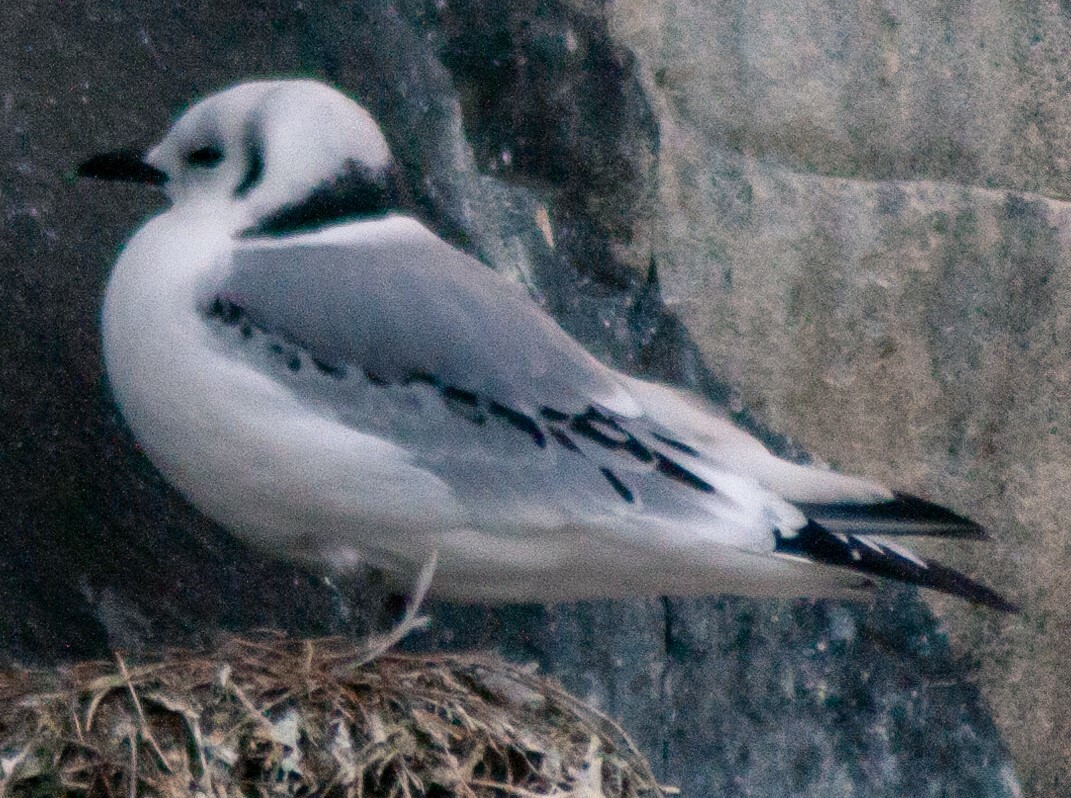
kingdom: Animalia
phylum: Chordata
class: Aves
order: Charadriiformes
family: Laridae
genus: Rissa
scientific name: Rissa tridactyla
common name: Black-legged kittiwake
